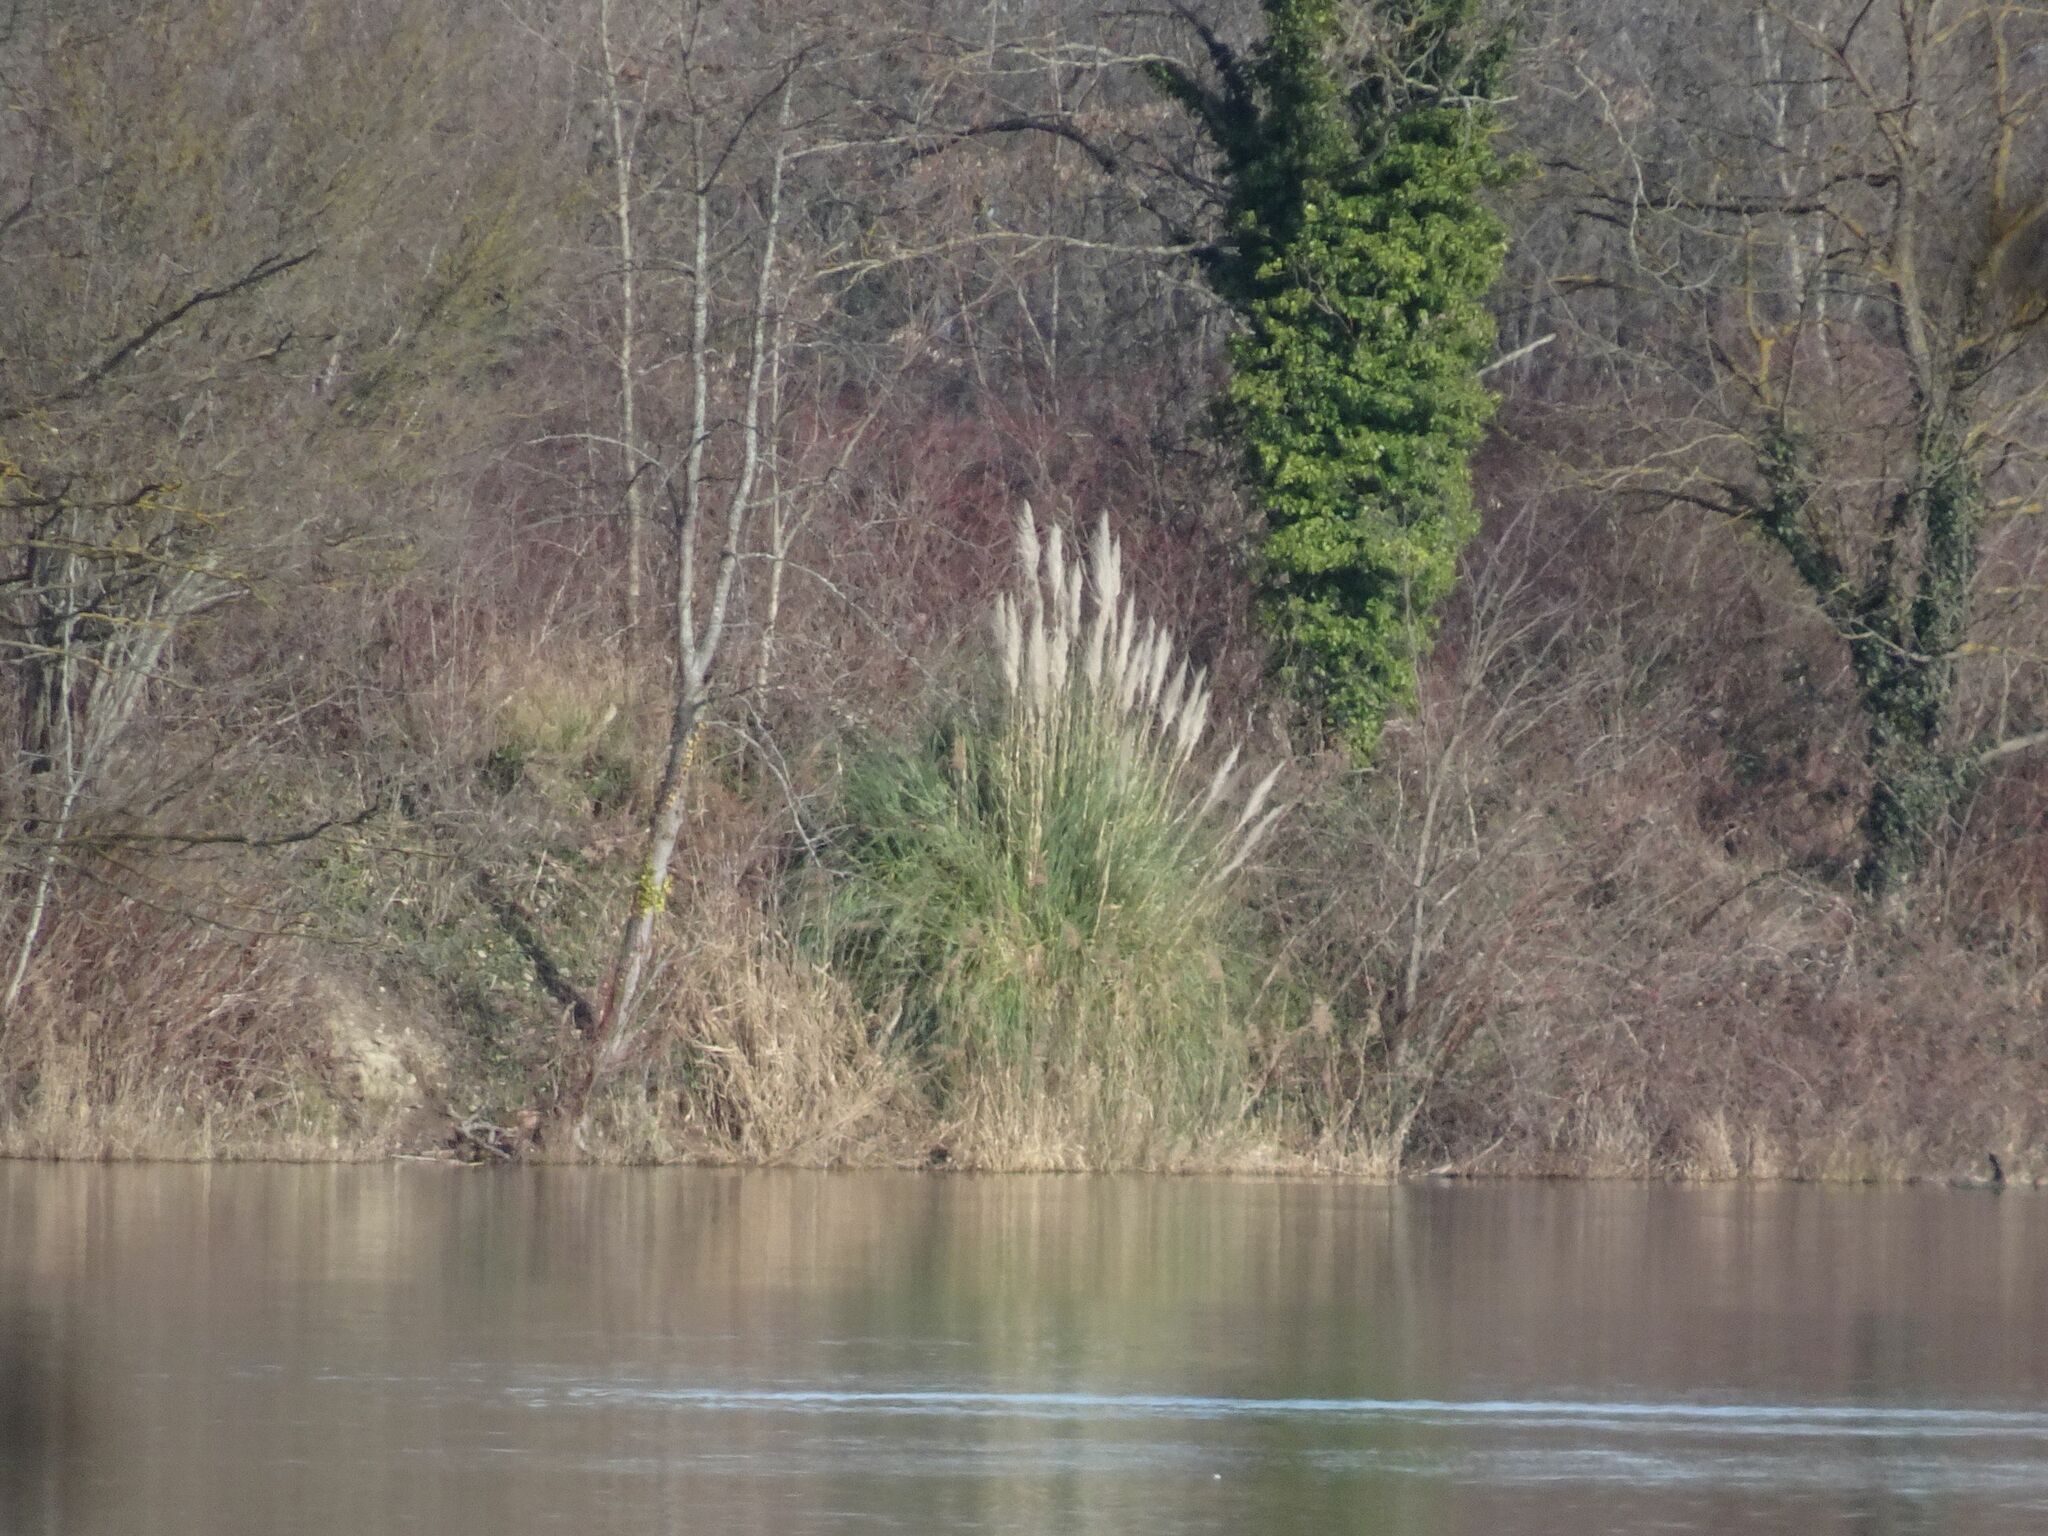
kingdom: Plantae
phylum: Tracheophyta
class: Liliopsida
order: Poales
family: Poaceae
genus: Cortaderia
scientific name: Cortaderia selloana
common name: Uruguayan pampas grass
